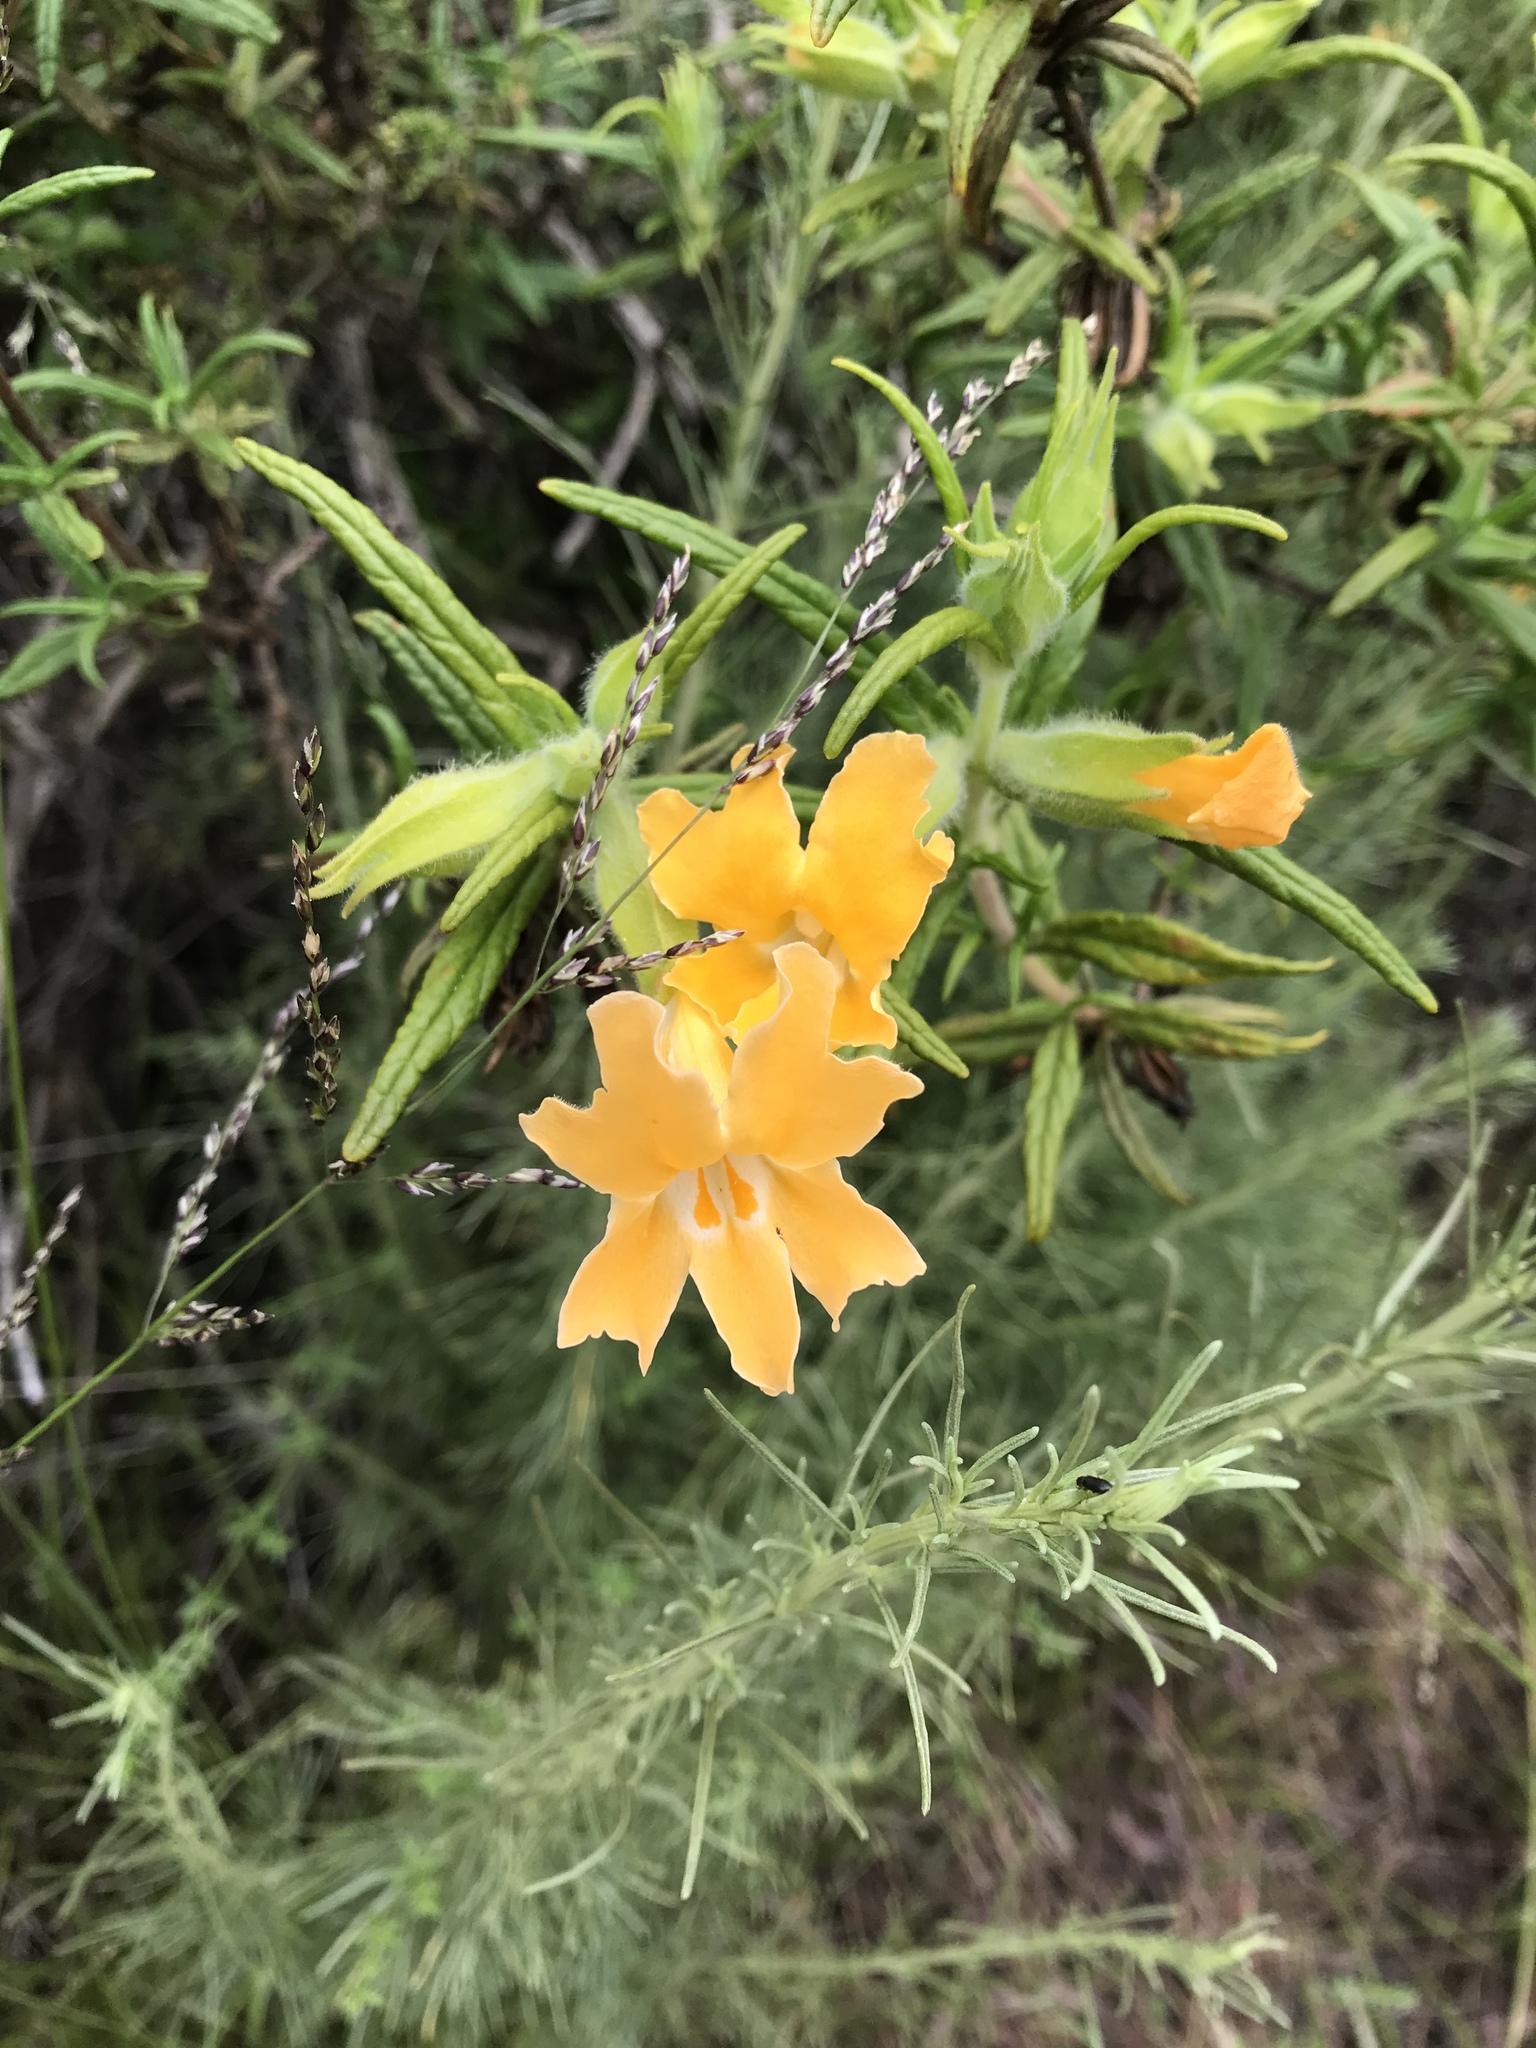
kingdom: Plantae
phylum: Tracheophyta
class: Magnoliopsida
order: Lamiales
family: Phrymaceae
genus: Diplacus
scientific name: Diplacus longiflorus
